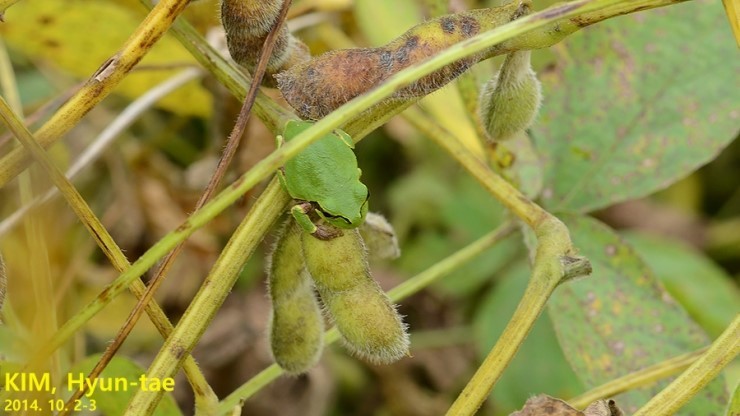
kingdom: Animalia
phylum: Chordata
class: Amphibia
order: Anura
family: Hylidae
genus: Dryophytes
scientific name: Dryophytes japonicus
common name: Japanese treefrog
